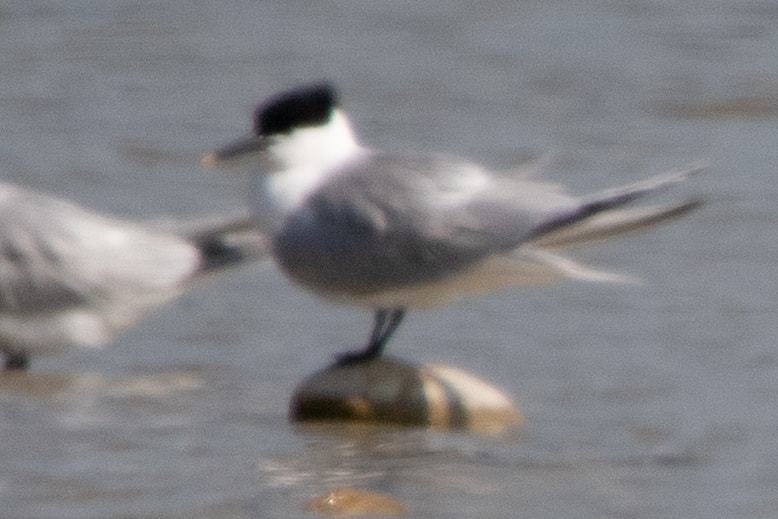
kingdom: Animalia
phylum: Chordata
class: Aves
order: Charadriiformes
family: Laridae
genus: Thalasseus
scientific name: Thalasseus sandvicensis
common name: Sandwich tern
